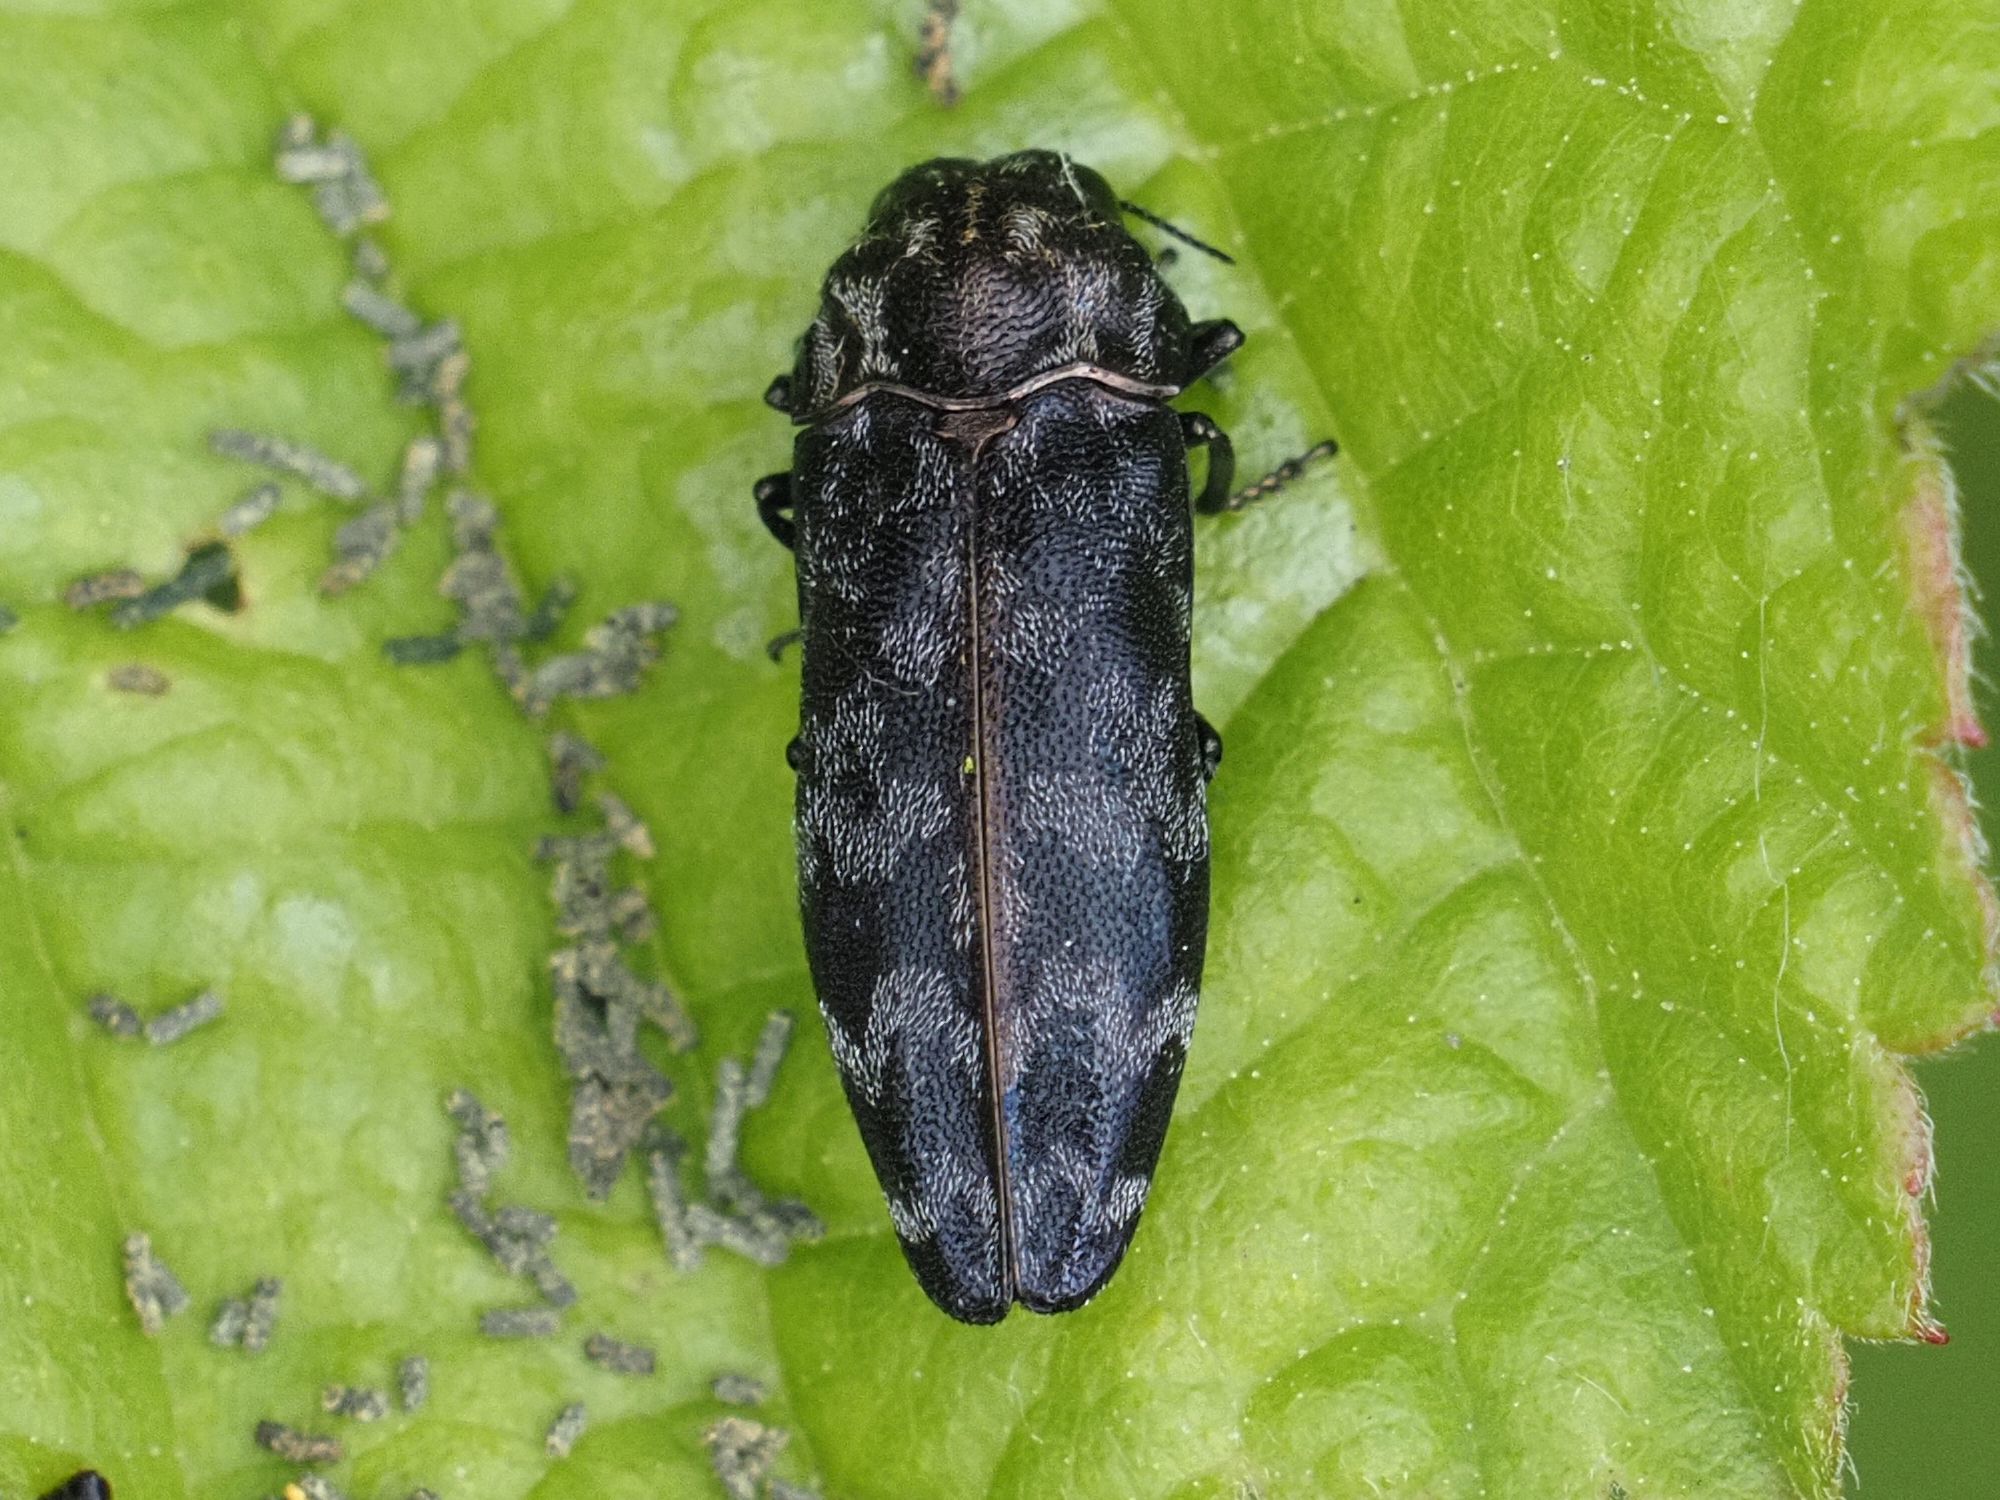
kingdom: Animalia
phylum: Arthropoda
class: Insecta
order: Coleoptera
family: Buprestidae
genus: Coraebus
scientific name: Coraebus rubi
